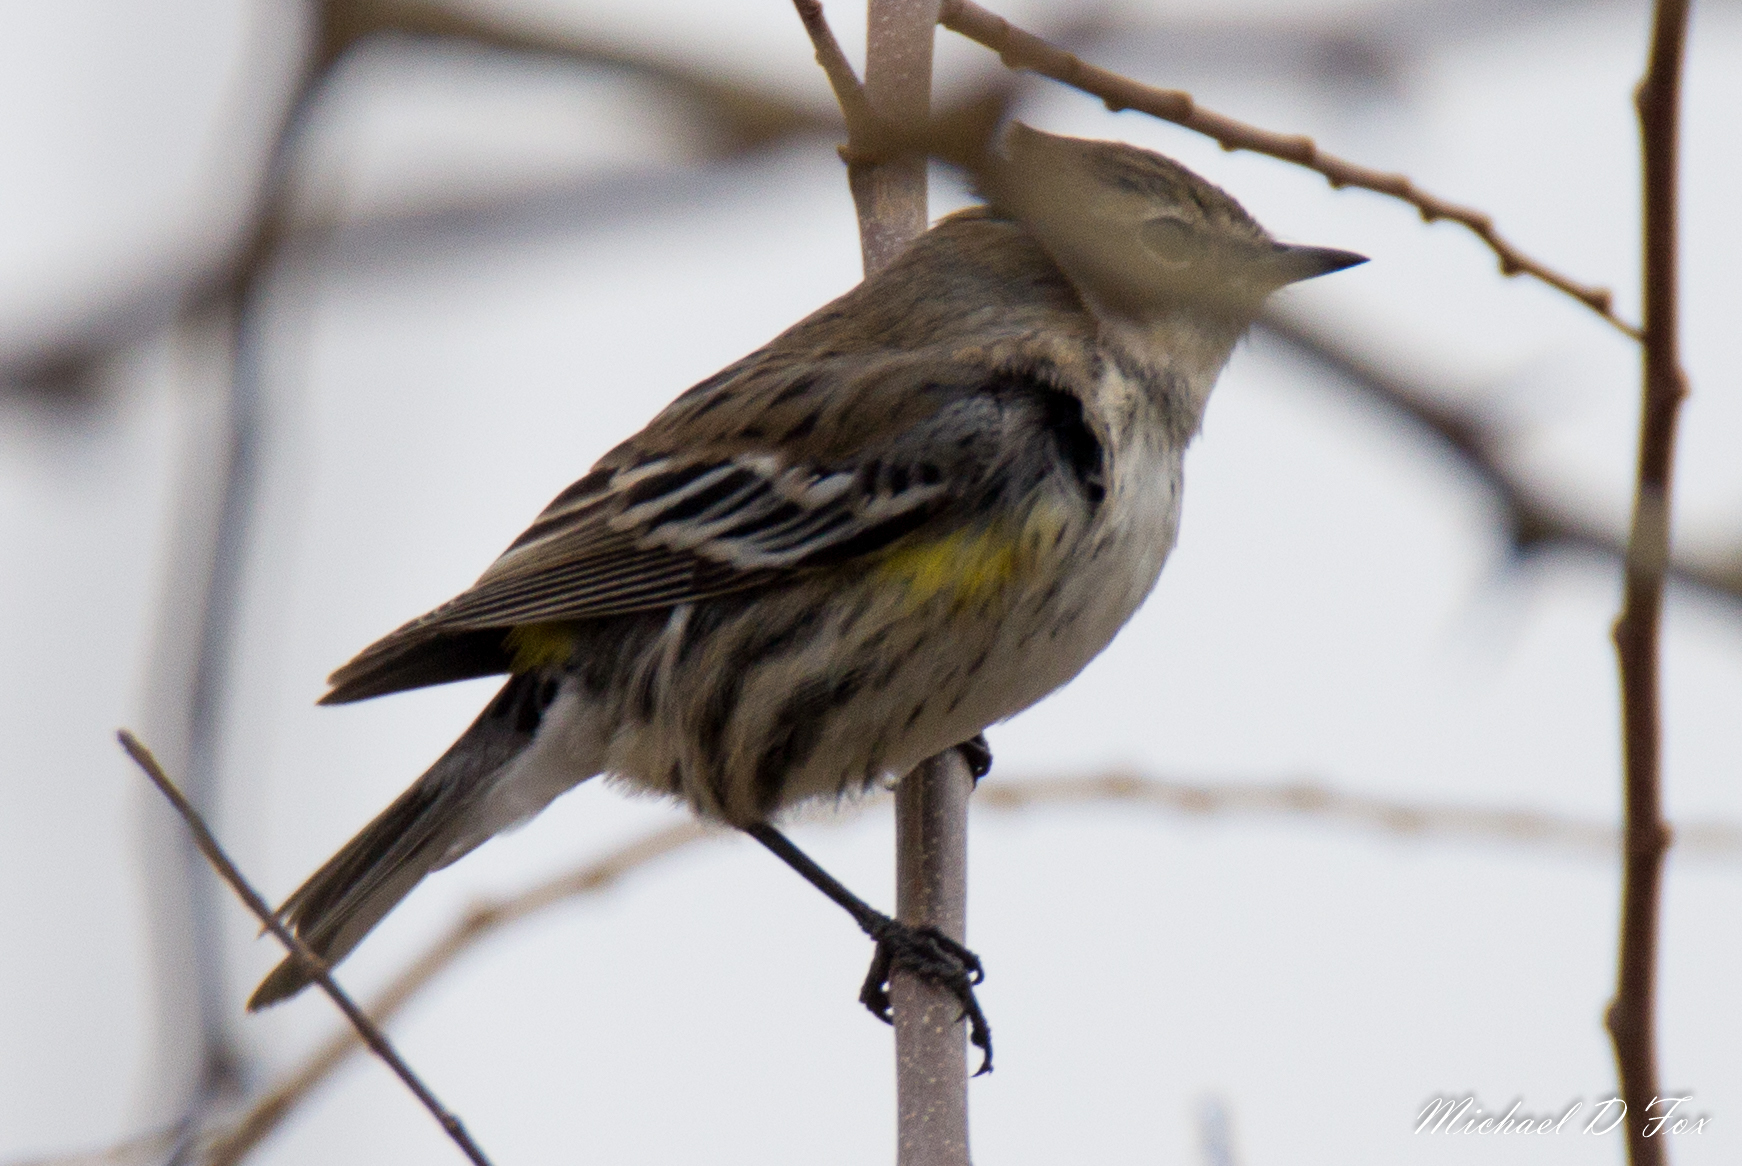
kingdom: Animalia
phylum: Chordata
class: Aves
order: Passeriformes
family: Parulidae
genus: Setophaga
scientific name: Setophaga coronata
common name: Myrtle warbler
